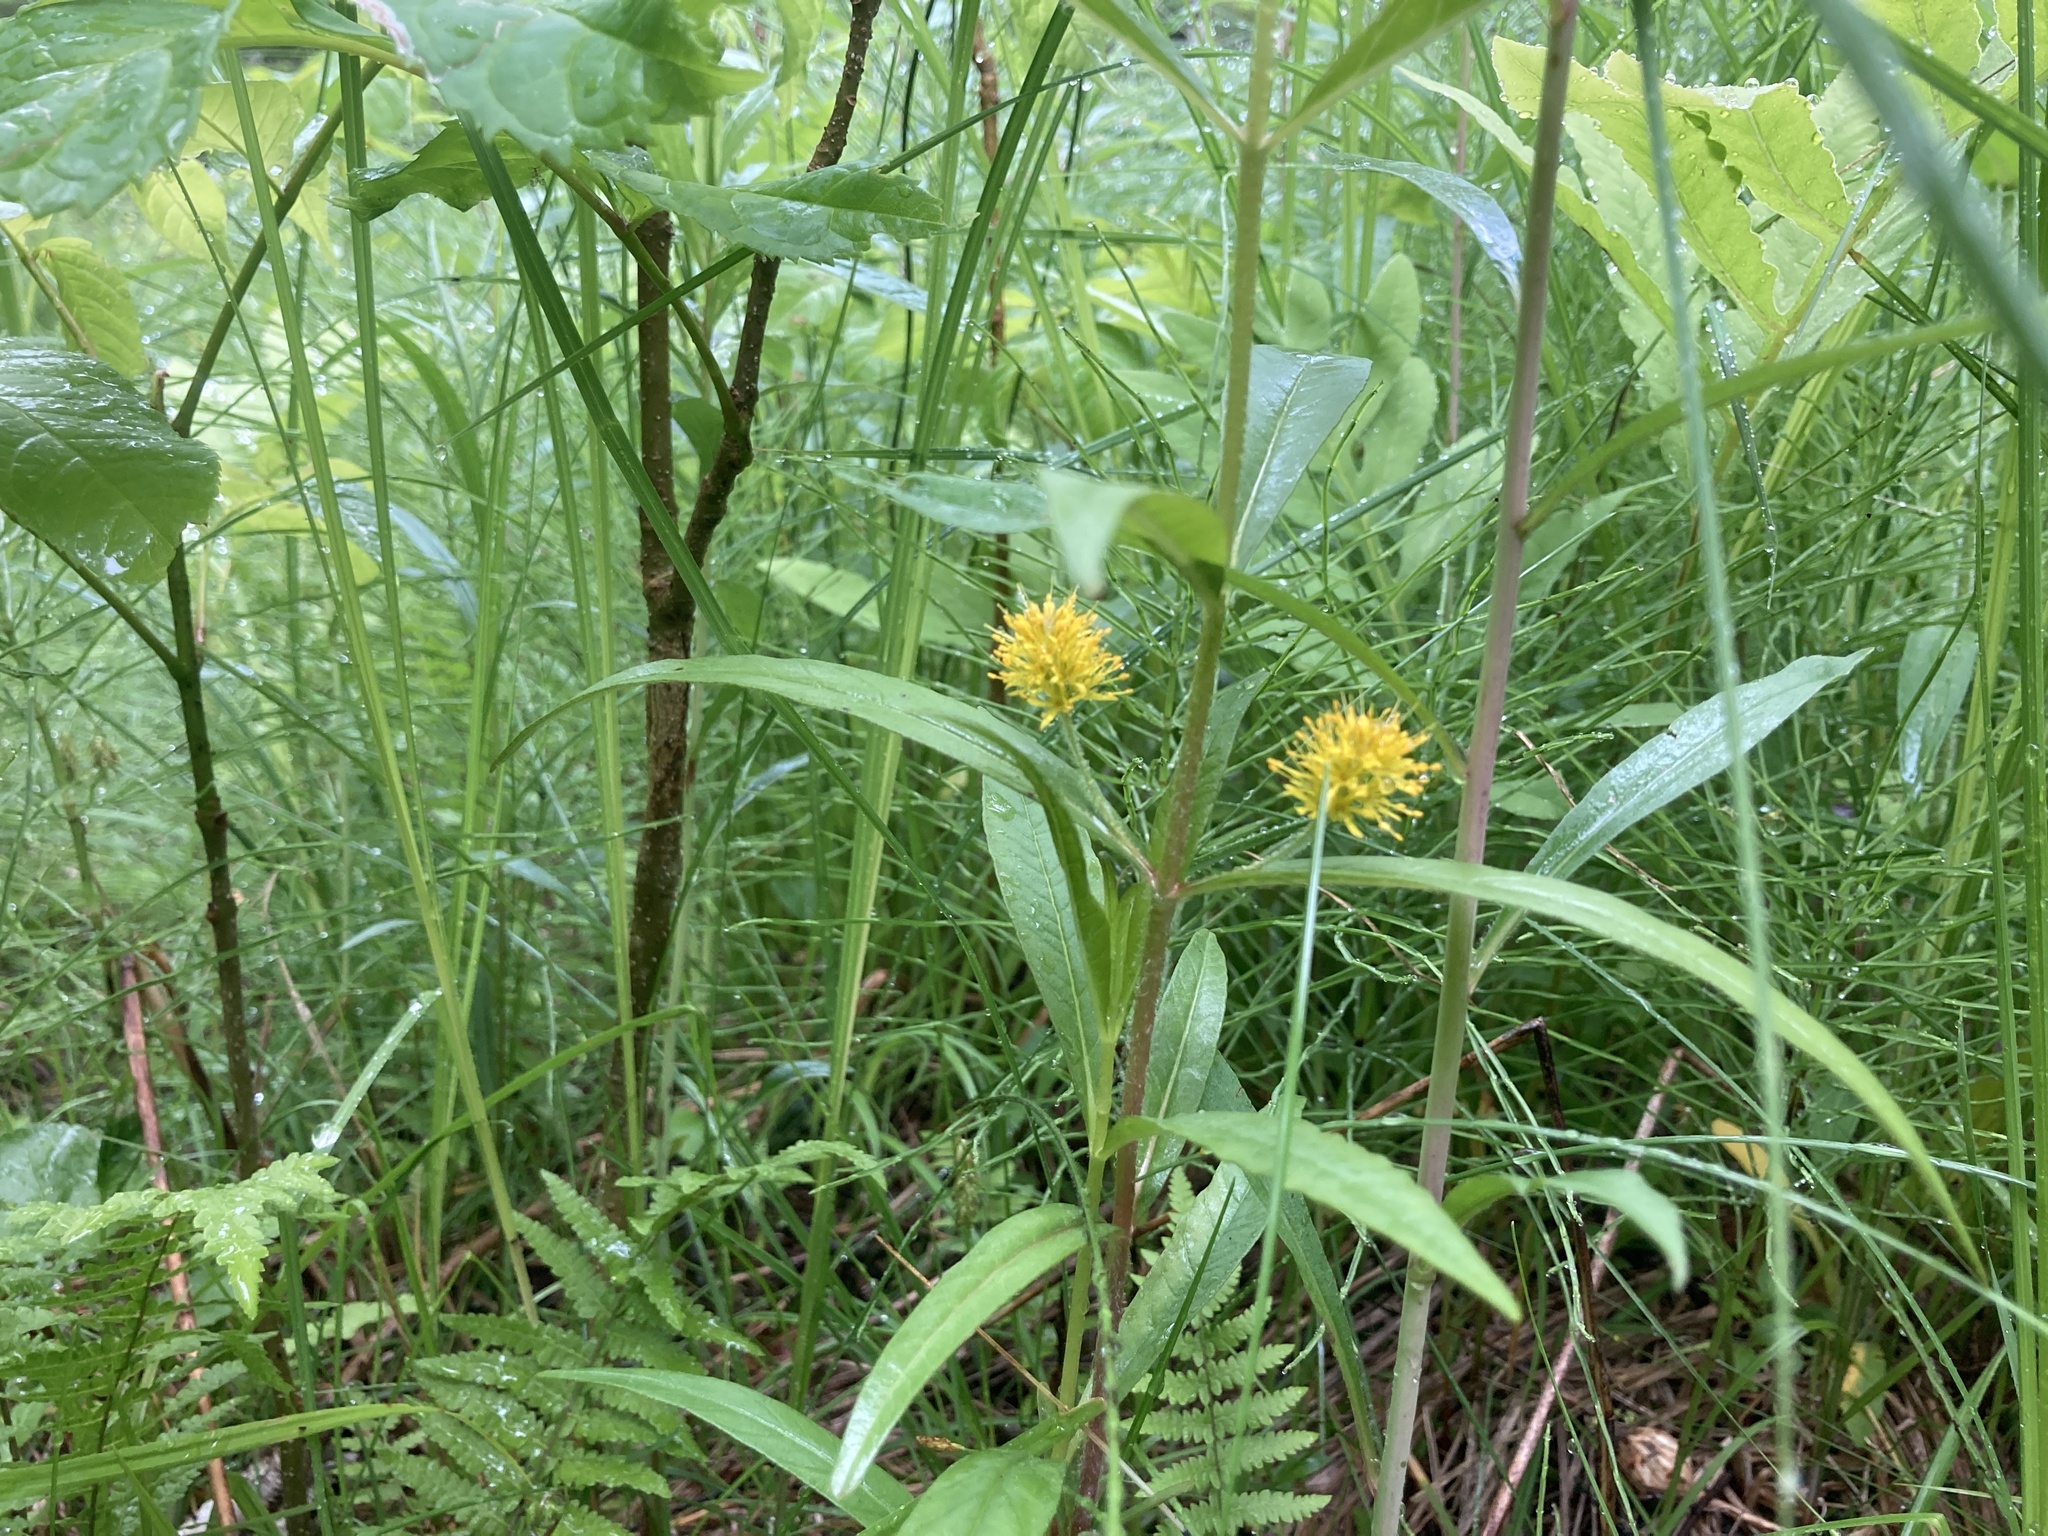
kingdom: Plantae
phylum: Tracheophyta
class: Magnoliopsida
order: Ericales
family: Primulaceae
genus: Lysimachia
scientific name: Lysimachia thyrsiflora
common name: Tufted loosestrife
